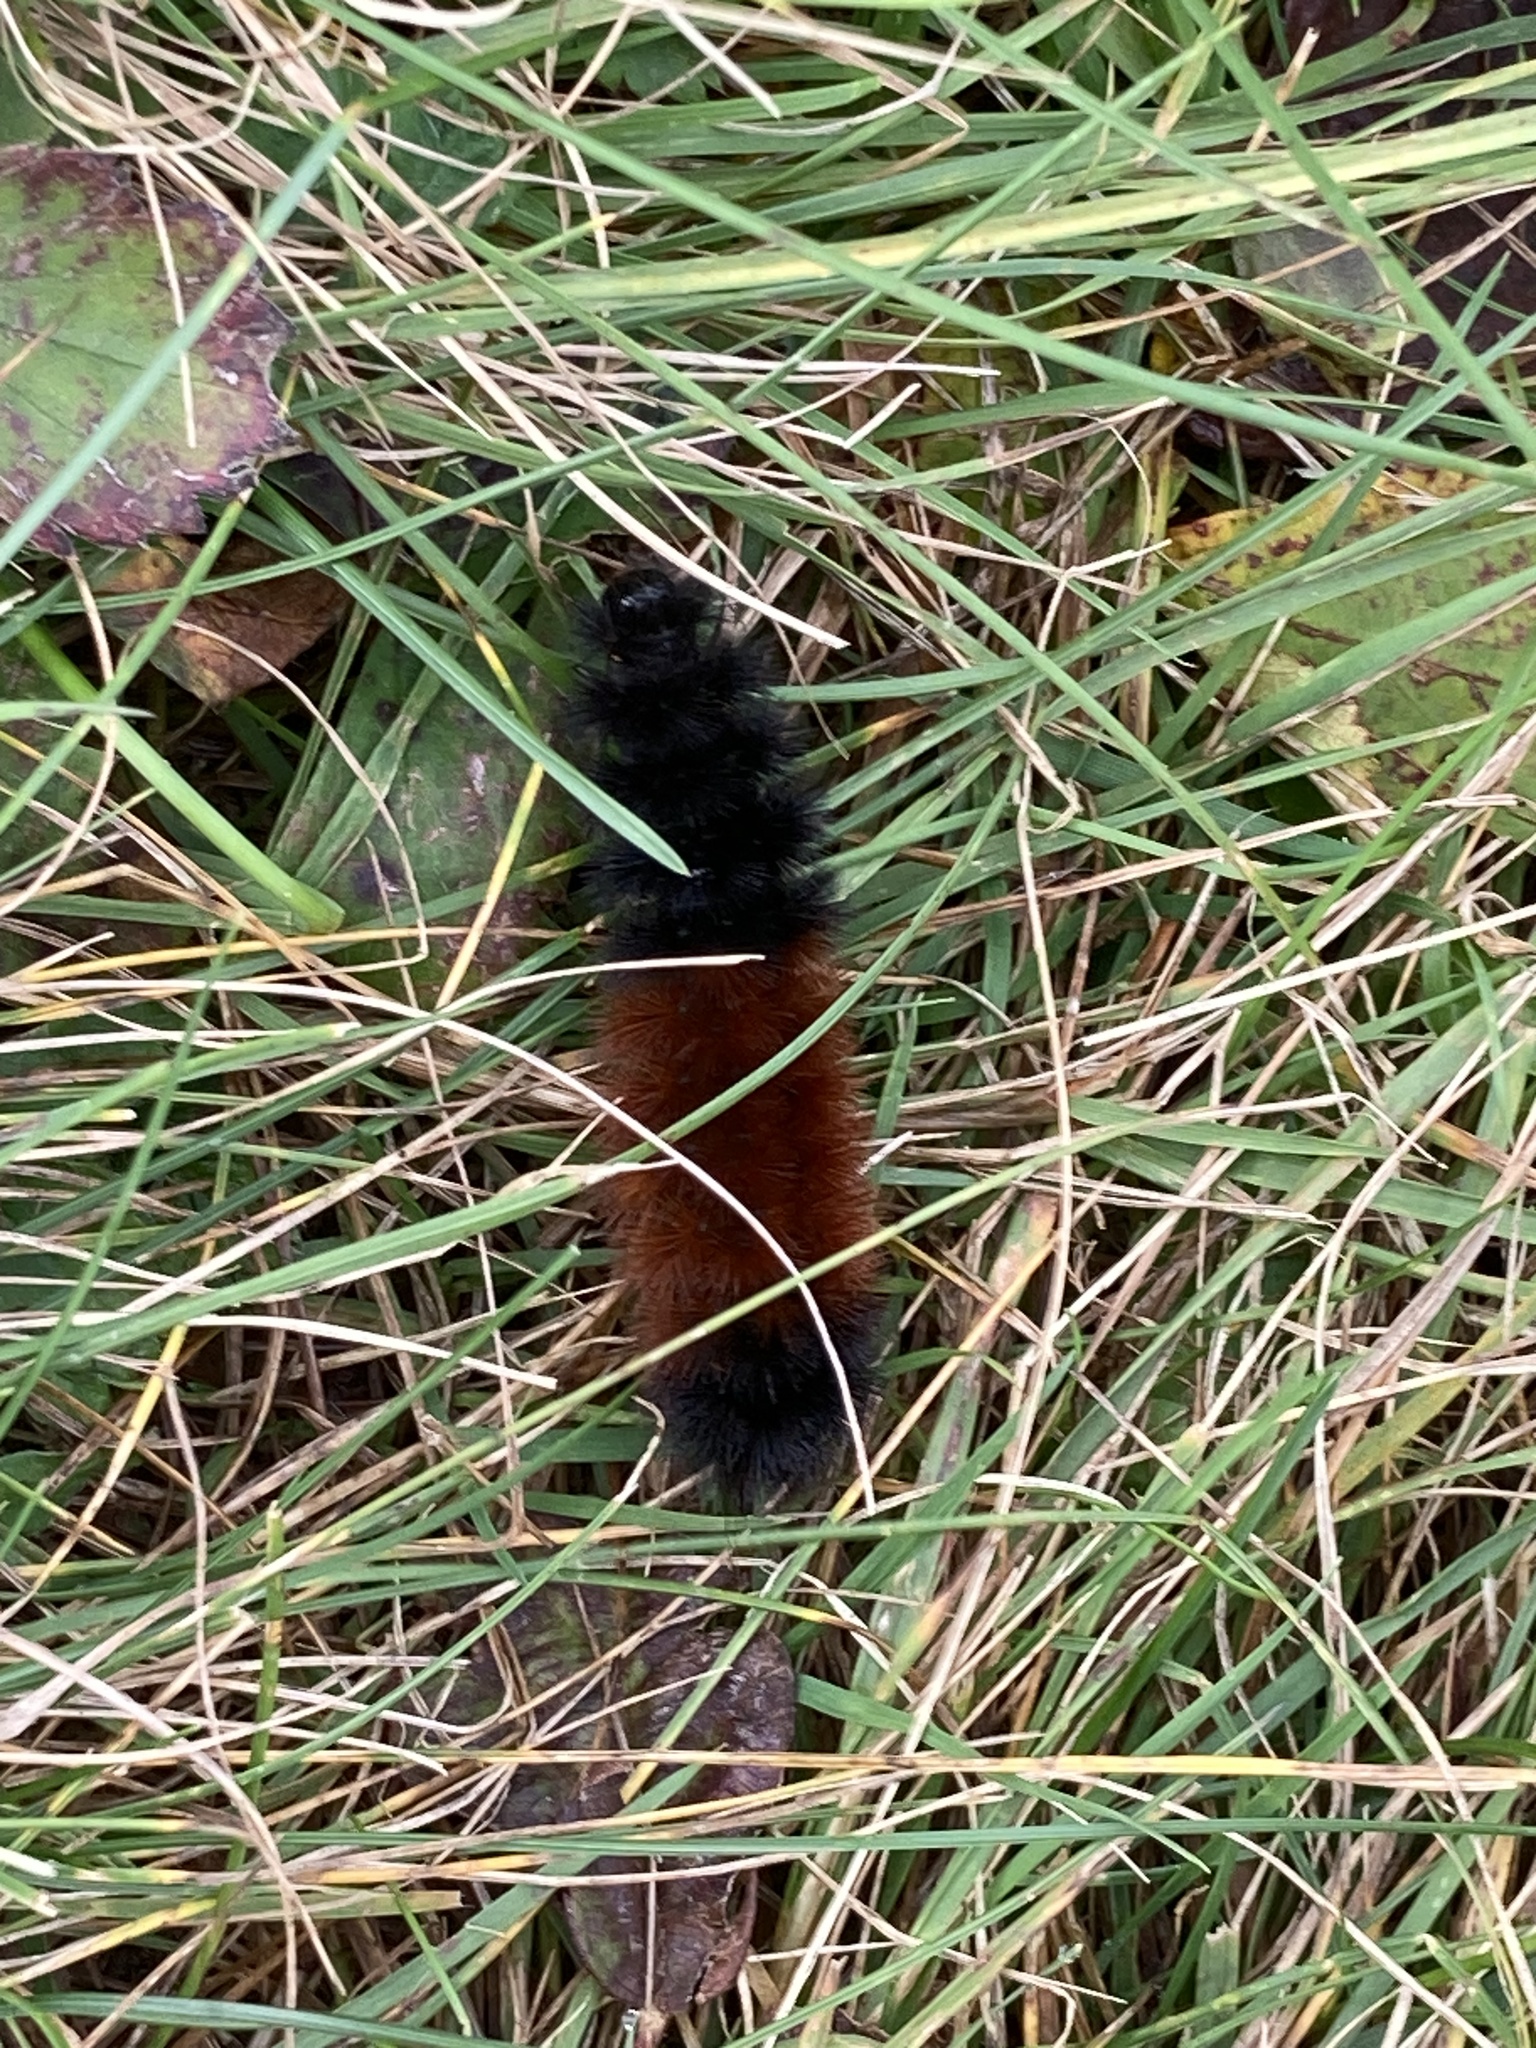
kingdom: Animalia
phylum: Arthropoda
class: Insecta
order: Lepidoptera
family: Erebidae
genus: Pyrrharctia
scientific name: Pyrrharctia isabella
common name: Isabella tiger moth
